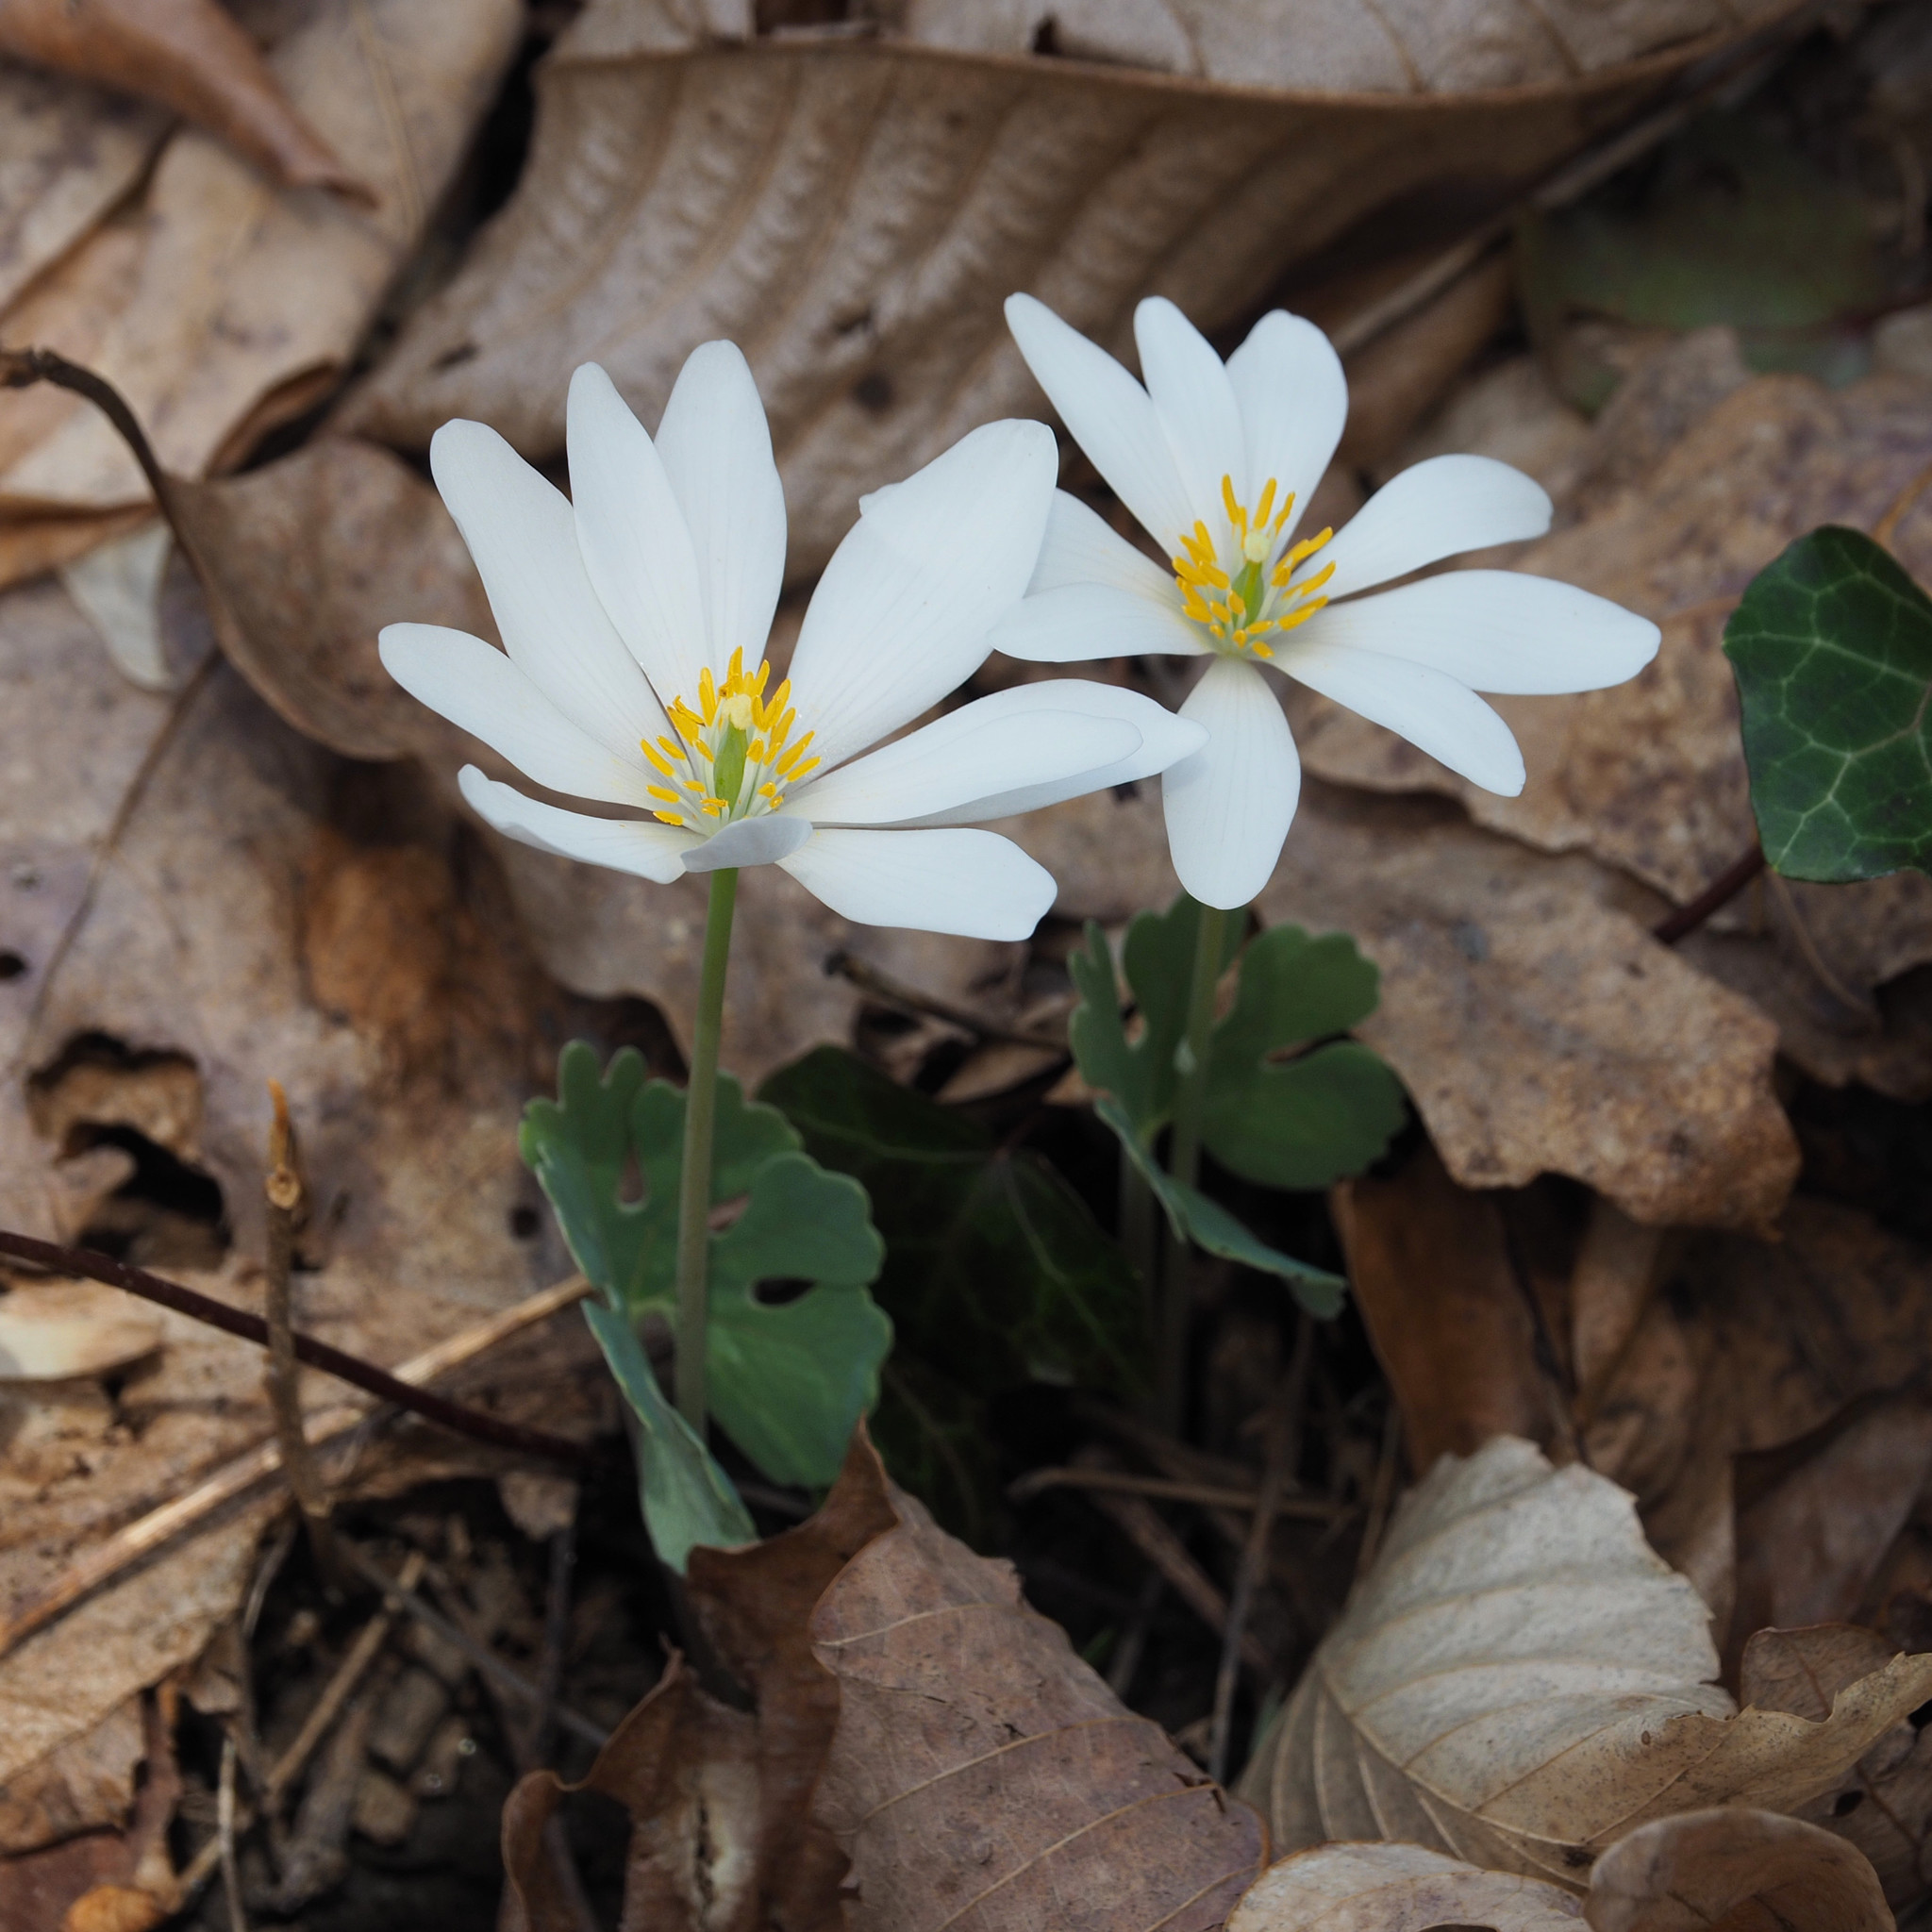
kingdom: Plantae
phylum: Tracheophyta
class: Magnoliopsida
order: Ranunculales
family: Papaveraceae
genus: Sanguinaria
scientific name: Sanguinaria canadensis
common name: Bloodroot
